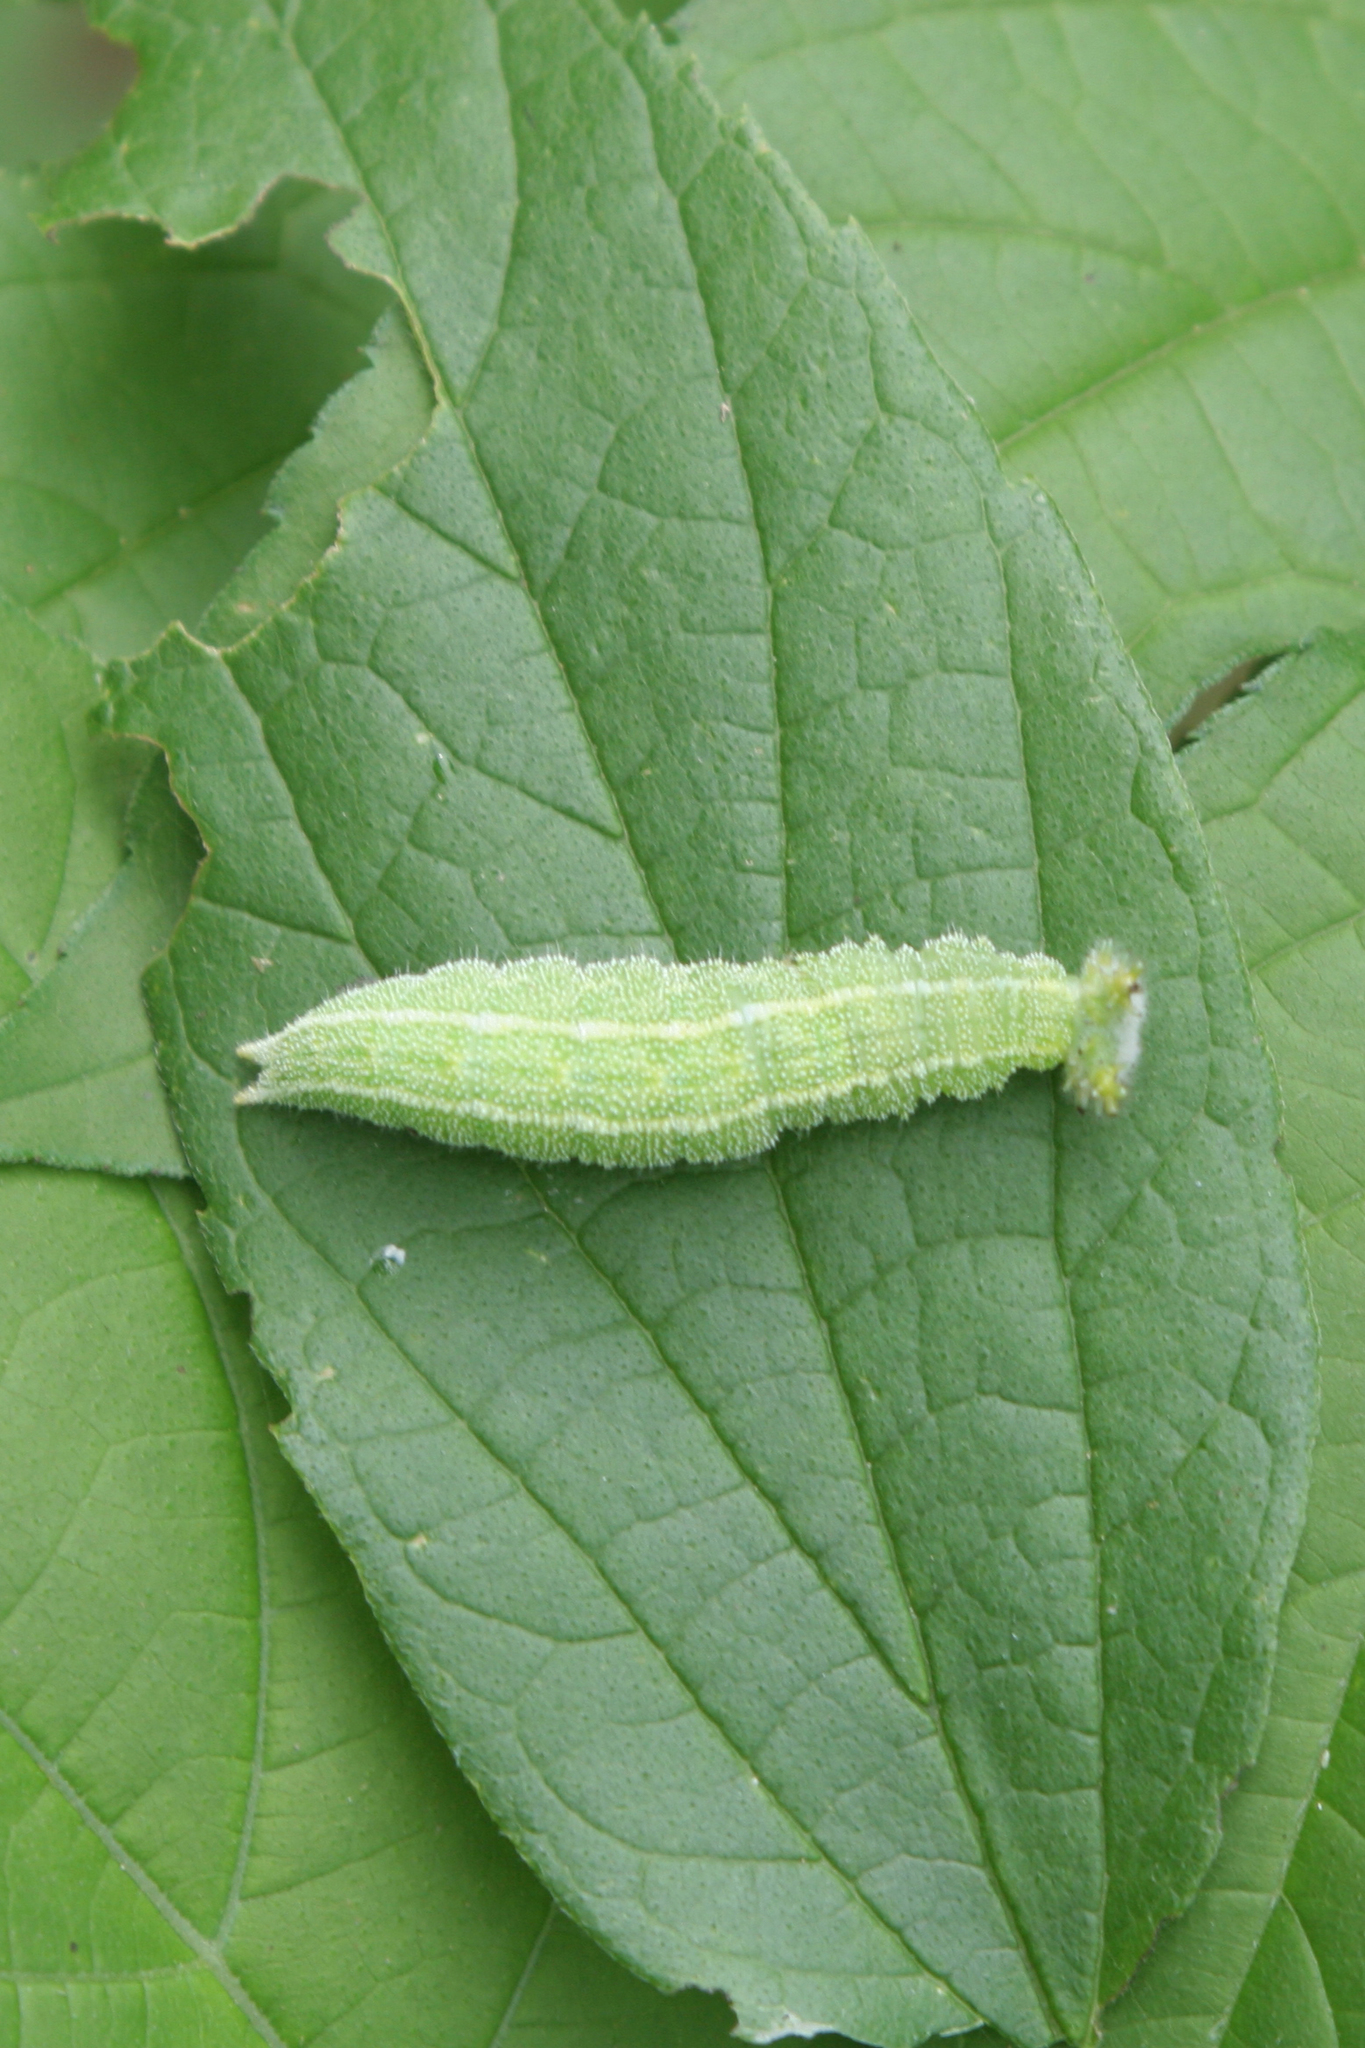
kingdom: Animalia
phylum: Arthropoda
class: Insecta
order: Lepidoptera
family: Nymphalidae
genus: Asterocampa
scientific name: Asterocampa clyton
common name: Tawny emperor
